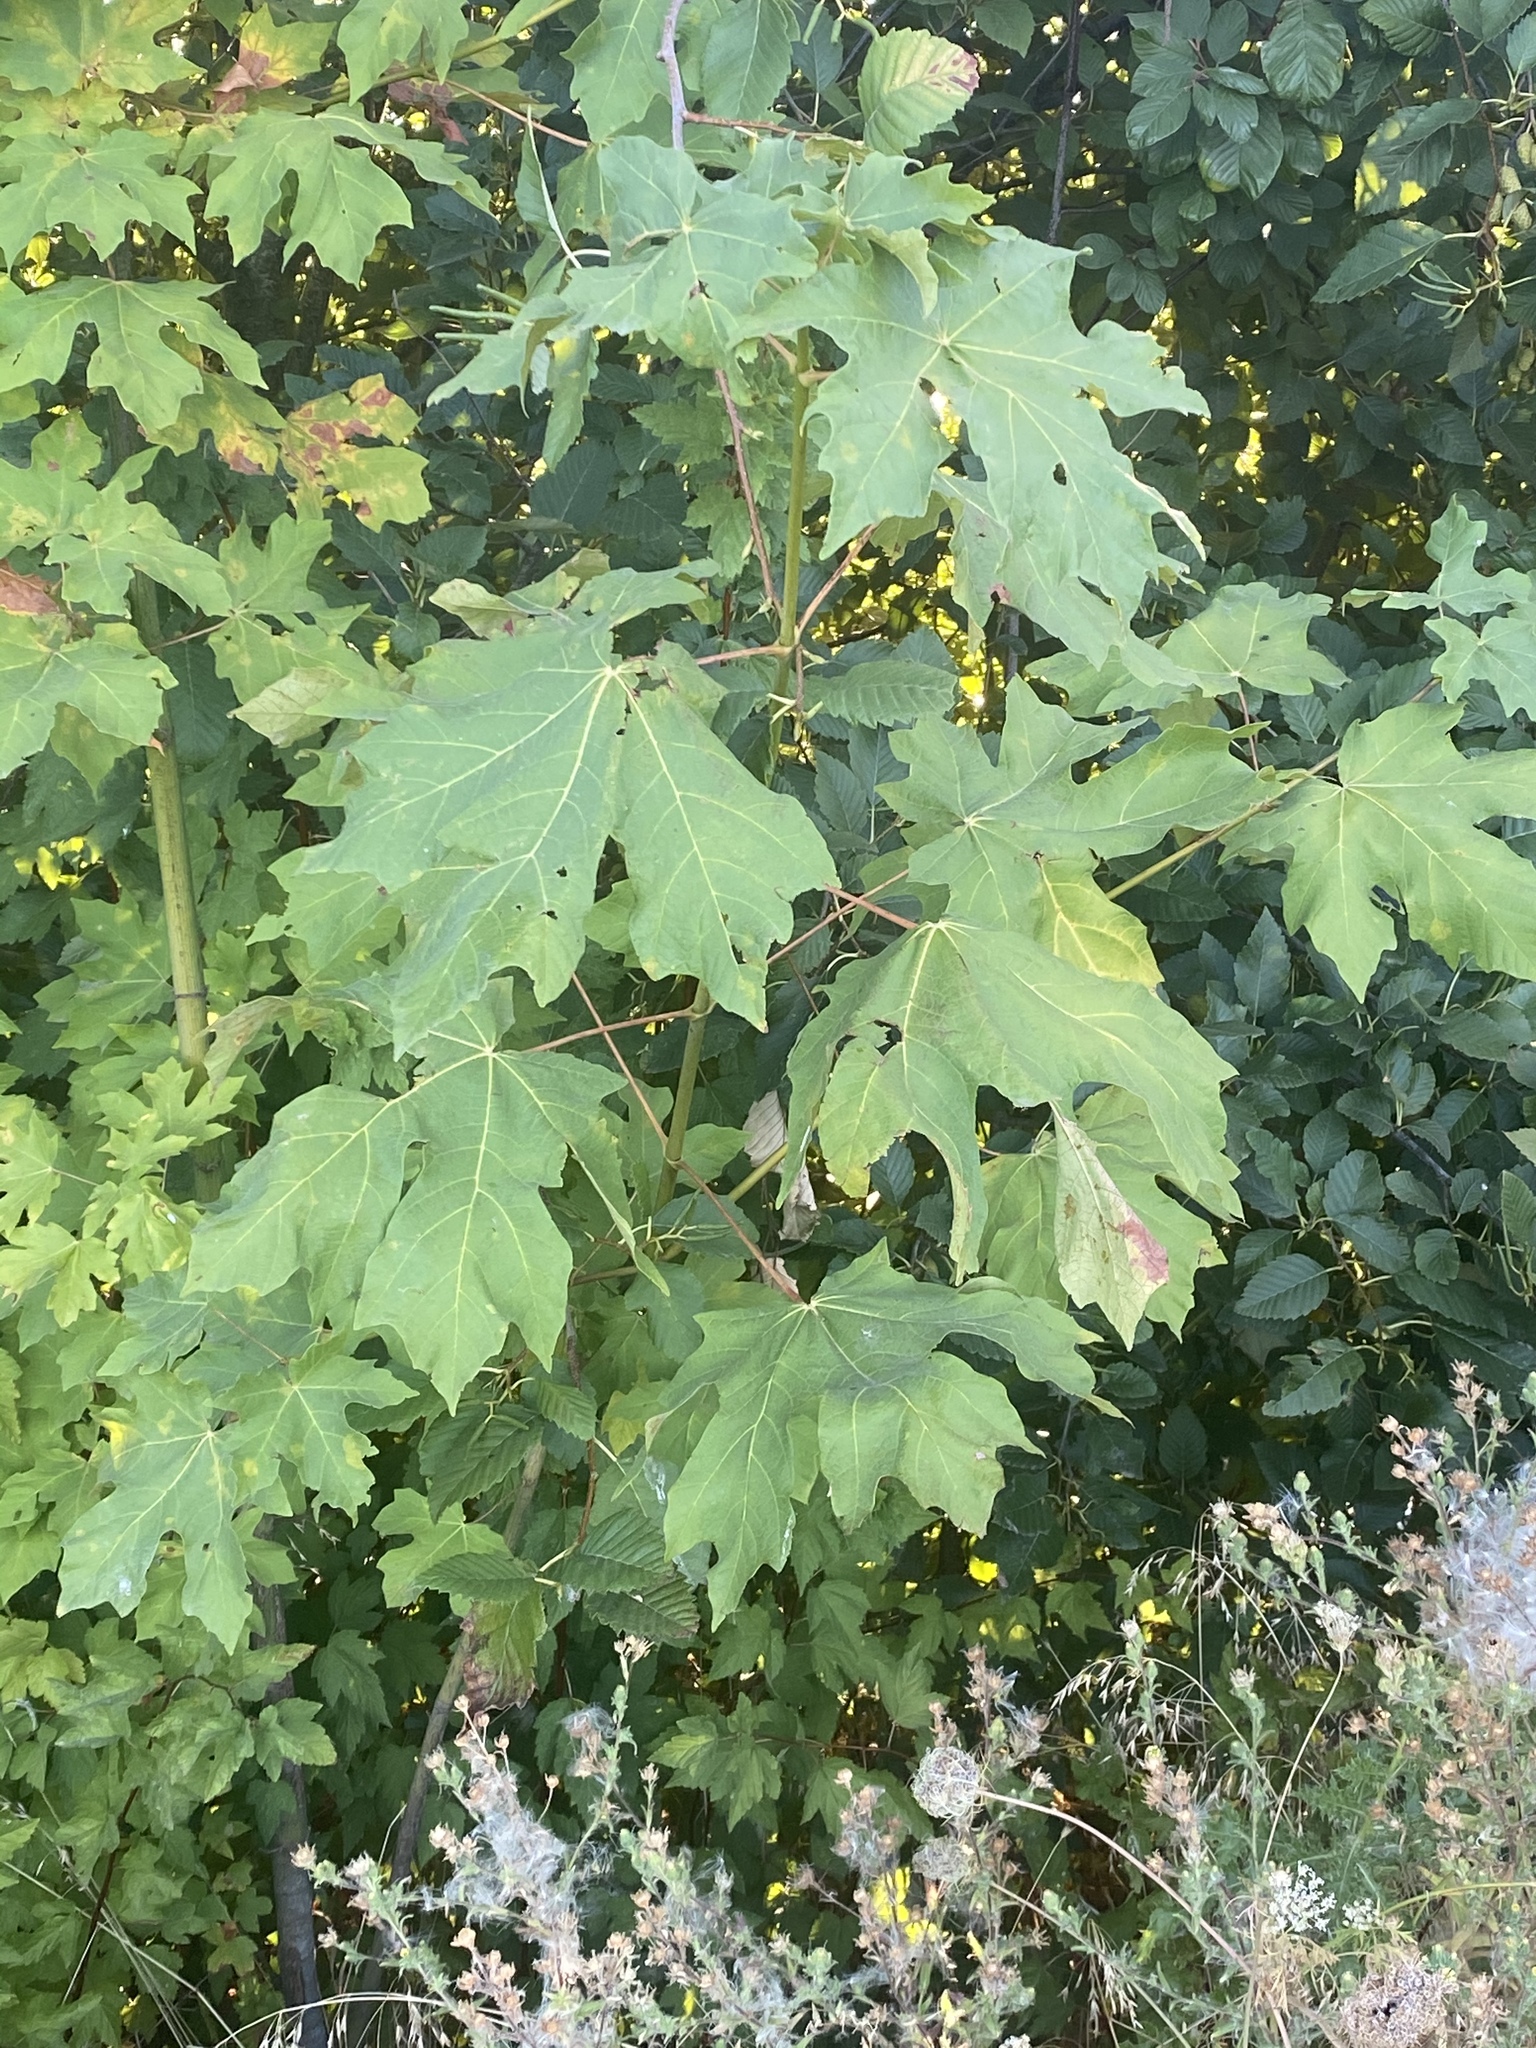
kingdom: Plantae
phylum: Tracheophyta
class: Magnoliopsida
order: Sapindales
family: Sapindaceae
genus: Acer
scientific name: Acer macrophyllum
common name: Oregon maple
